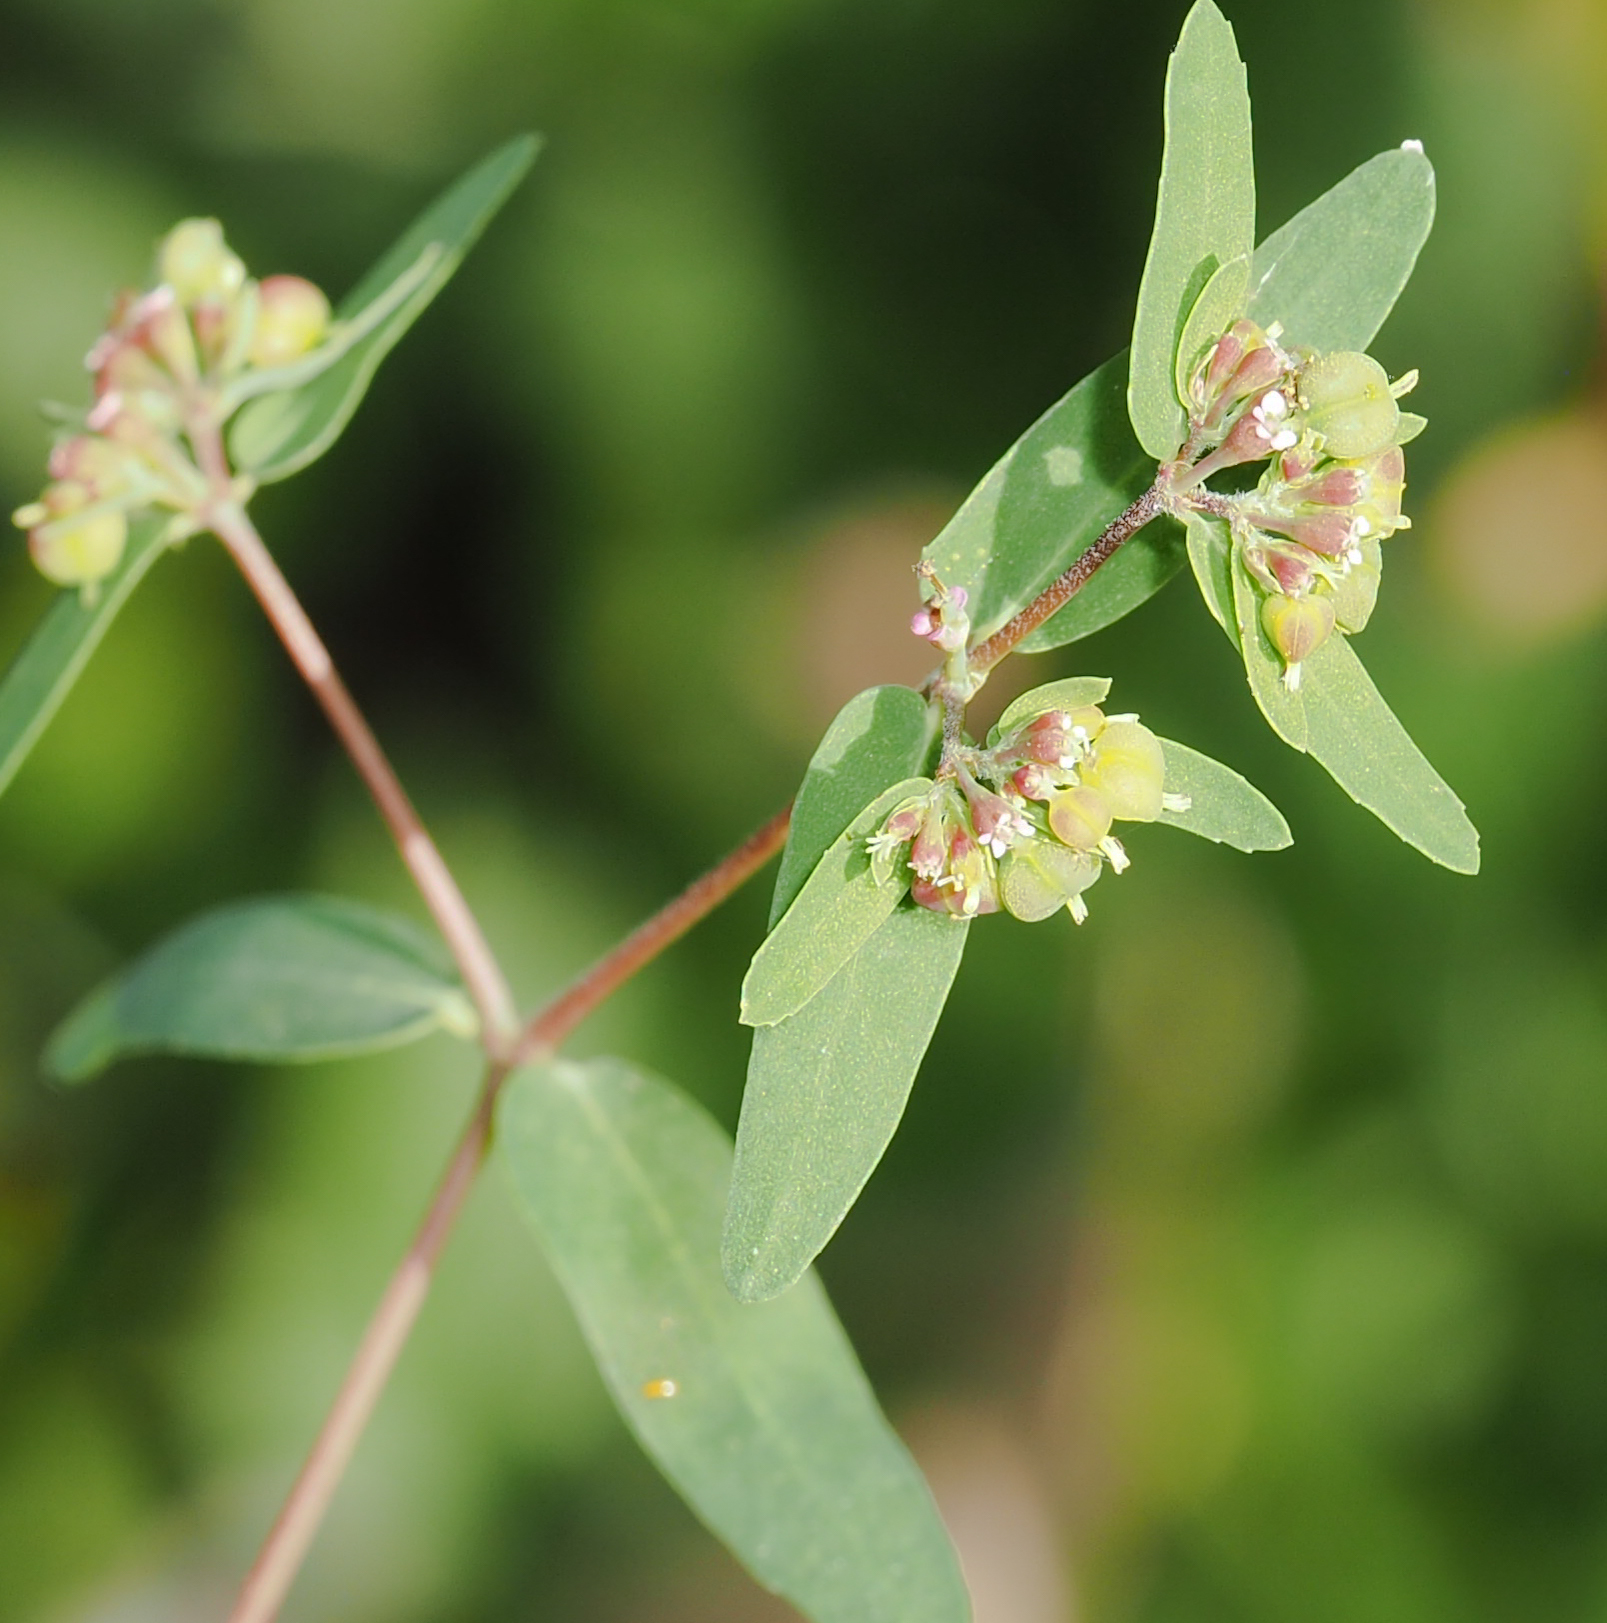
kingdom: Plantae
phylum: Tracheophyta
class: Magnoliopsida
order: Malpighiales
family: Euphorbiaceae
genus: Euphorbia
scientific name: Euphorbia nutans
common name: Eyebane
